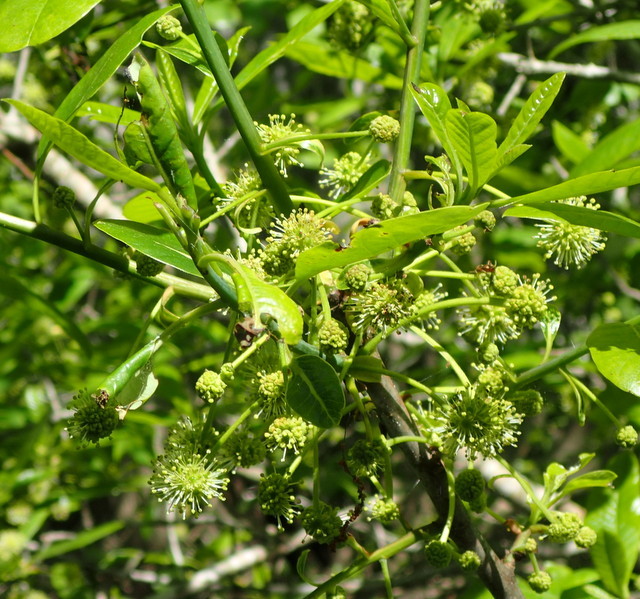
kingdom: Plantae
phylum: Tracheophyta
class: Magnoliopsida
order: Cornales
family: Nyssaceae
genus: Nyssa
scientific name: Nyssa ogeche
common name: Ogeechee tupelo
